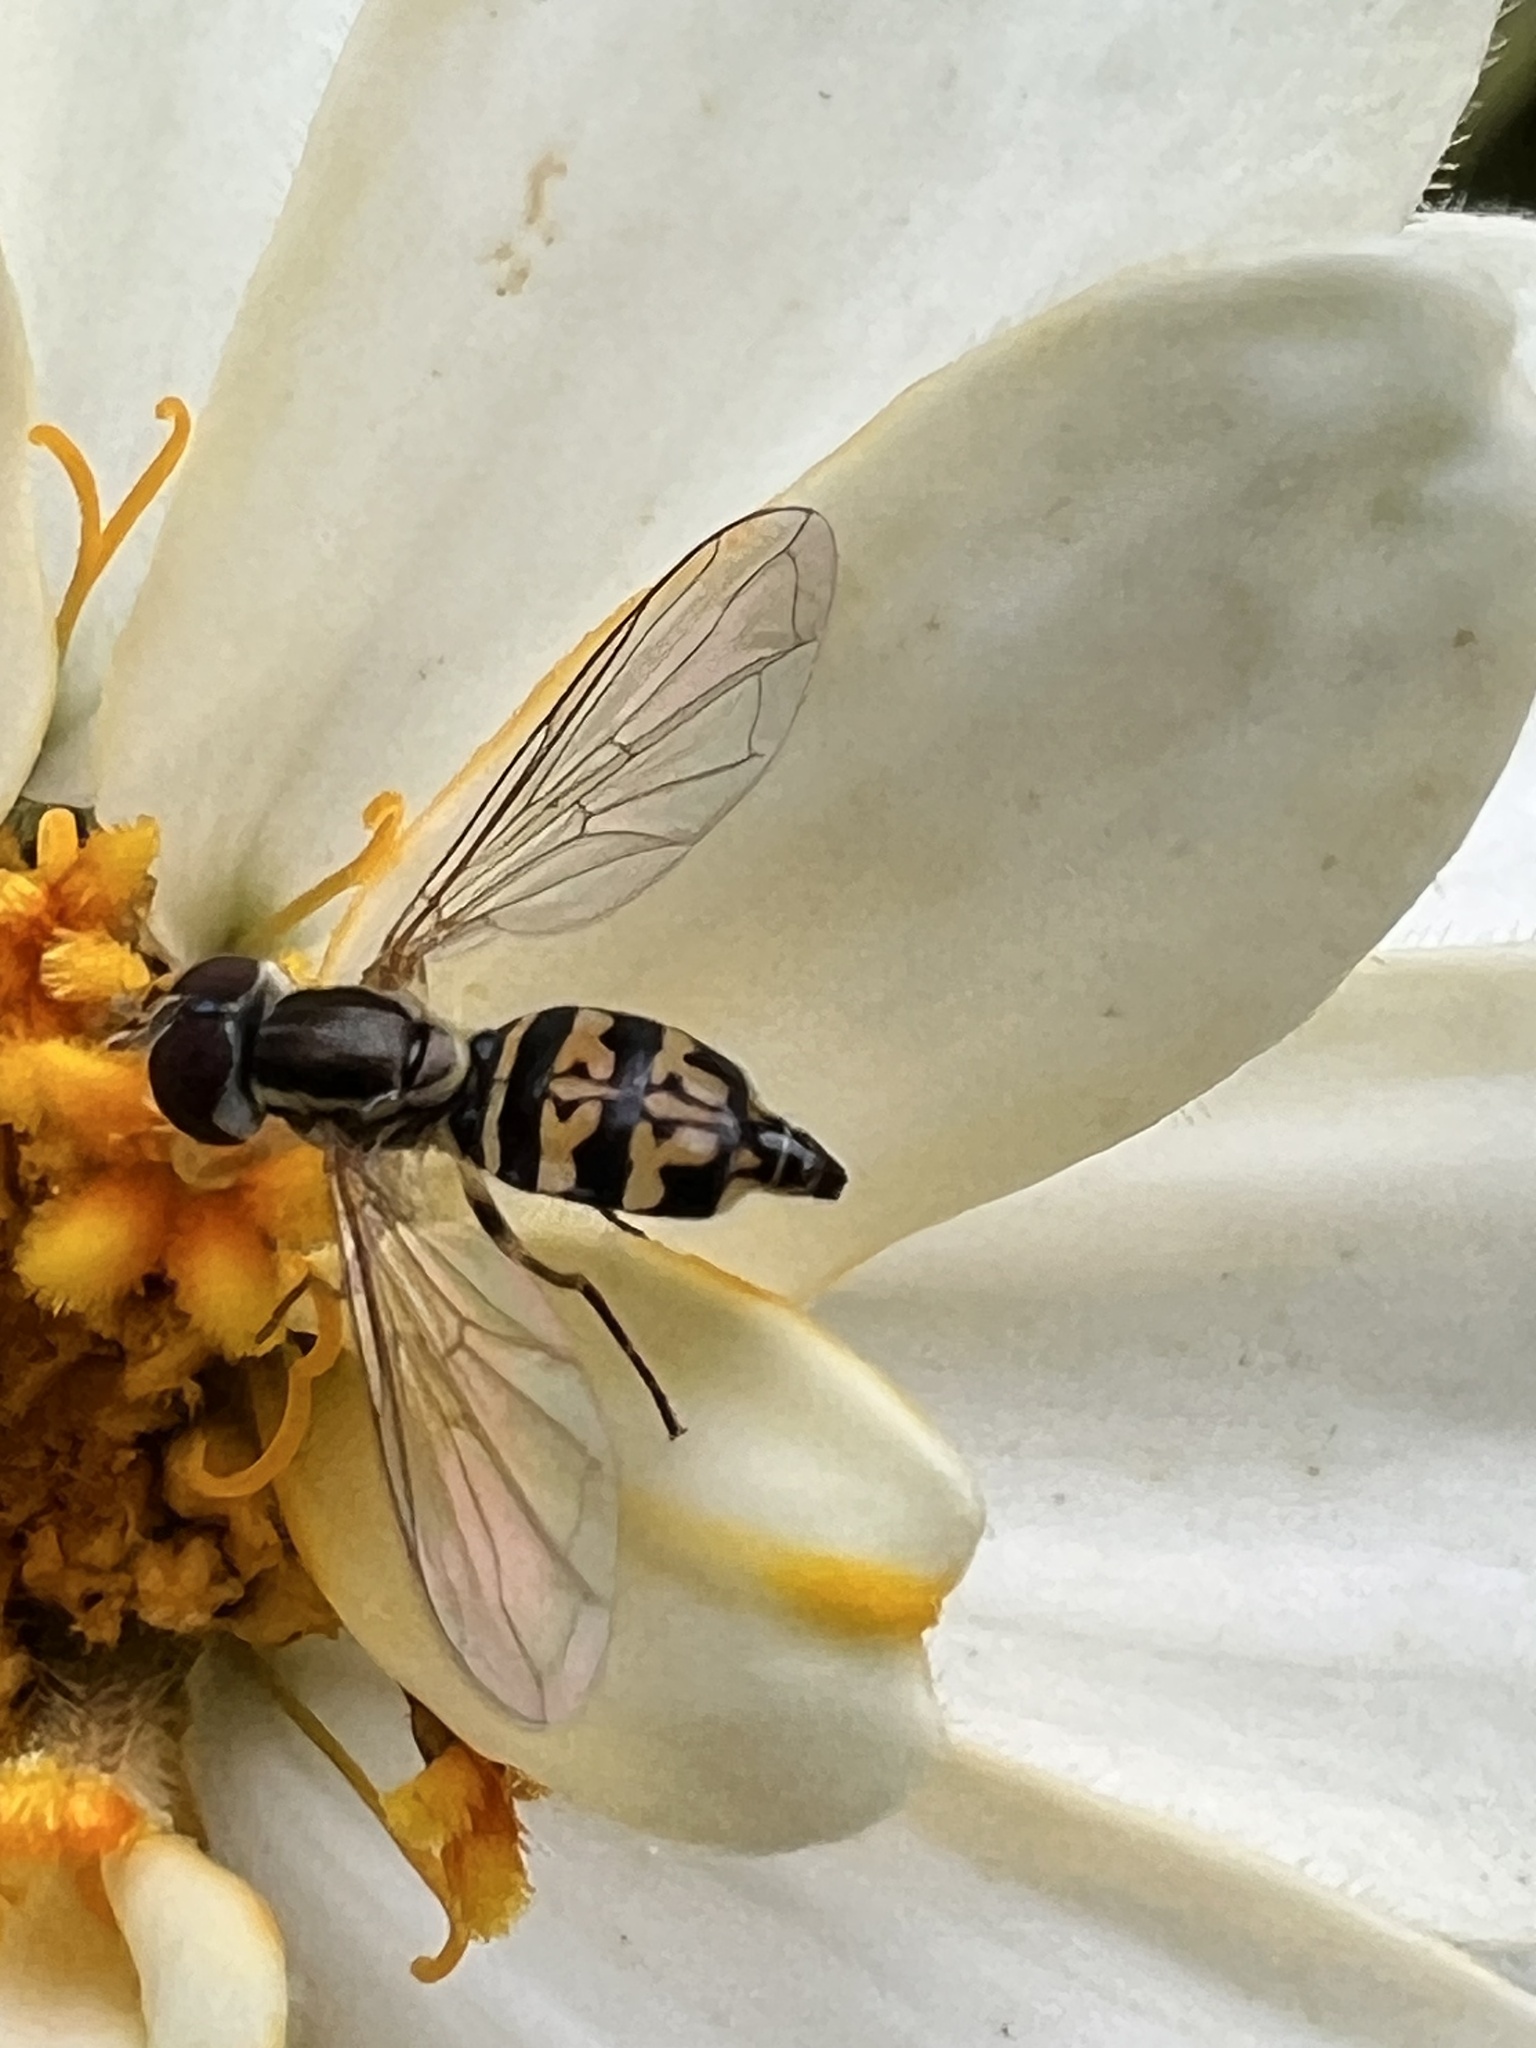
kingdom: Animalia
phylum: Arthropoda
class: Insecta
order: Diptera
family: Syrphidae
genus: Toxomerus
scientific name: Toxomerus geminatus
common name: Eastern calligrapher
